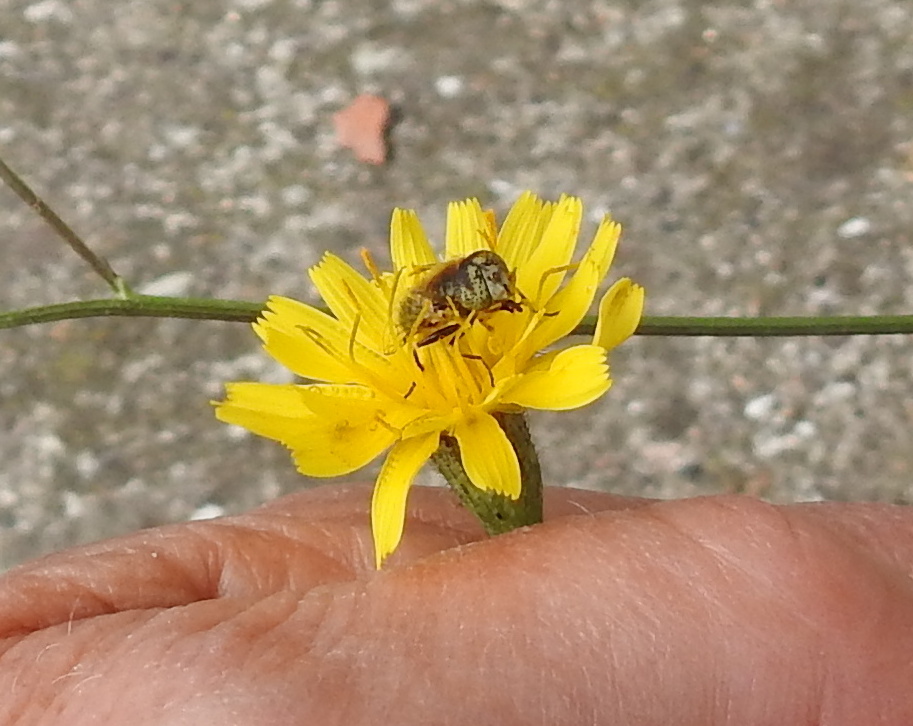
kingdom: Animalia
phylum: Arthropoda
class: Insecta
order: Diptera
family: Syrphidae
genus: Eristalinus
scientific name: Eristalinus aeneus
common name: Syrphid fly
